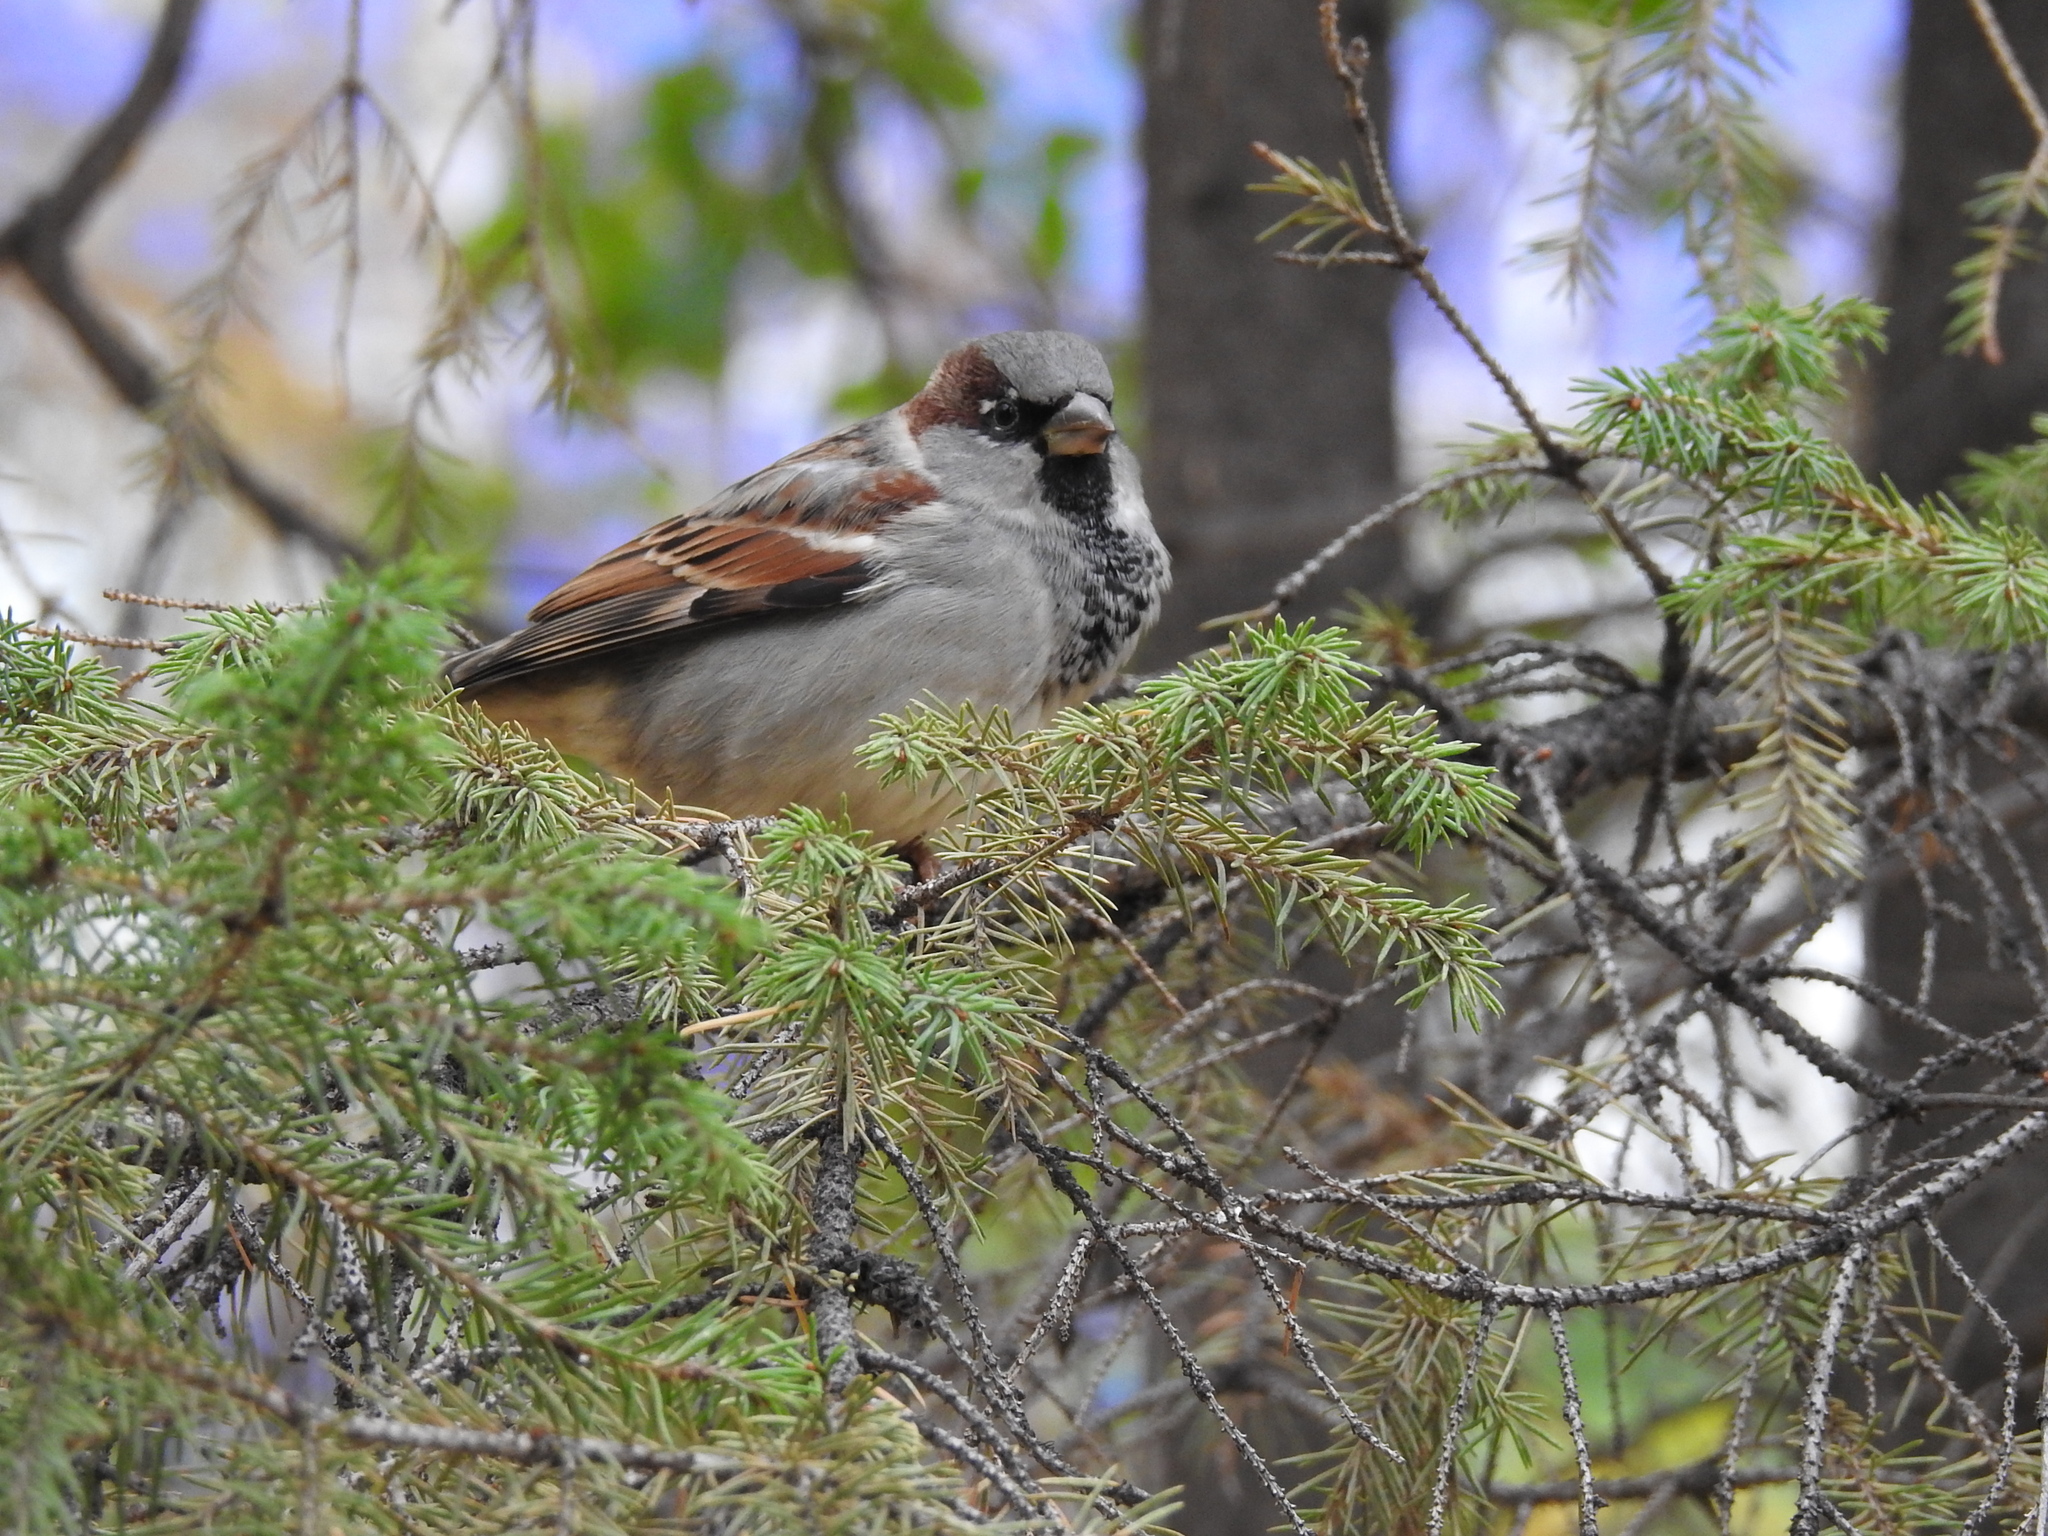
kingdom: Animalia
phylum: Chordata
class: Aves
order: Passeriformes
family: Passeridae
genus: Passer
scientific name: Passer domesticus
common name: House sparrow
